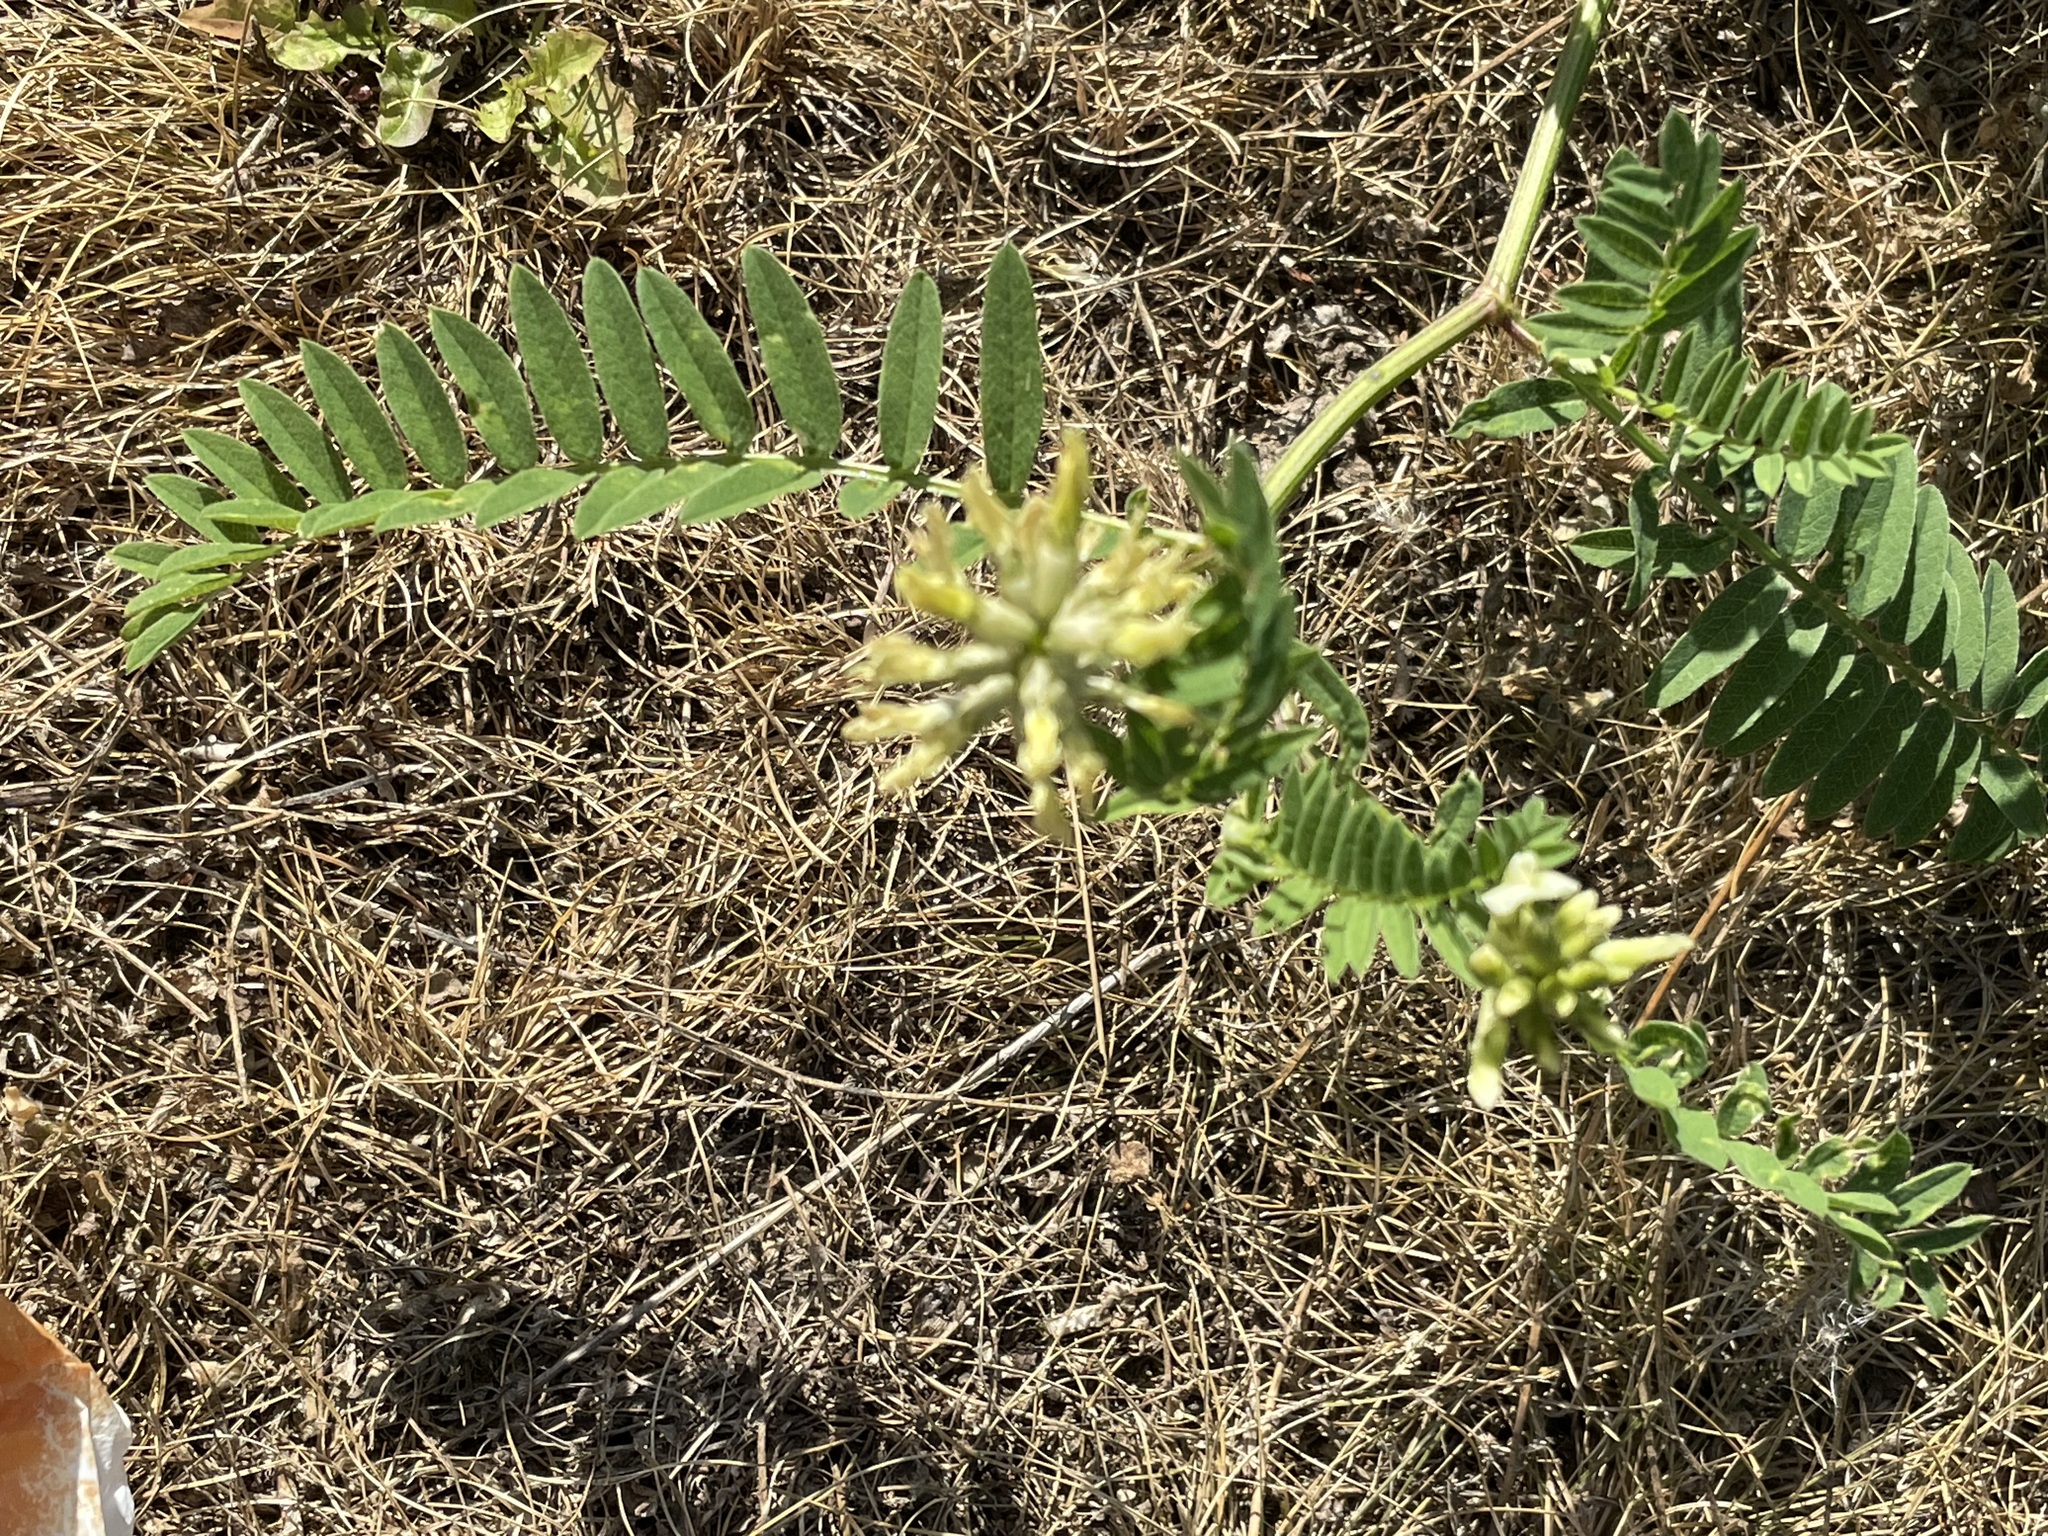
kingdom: Plantae
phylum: Tracheophyta
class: Magnoliopsida
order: Fabales
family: Fabaceae
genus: Astragalus
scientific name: Astragalus cicer
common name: Chick-pea milk-vetch
